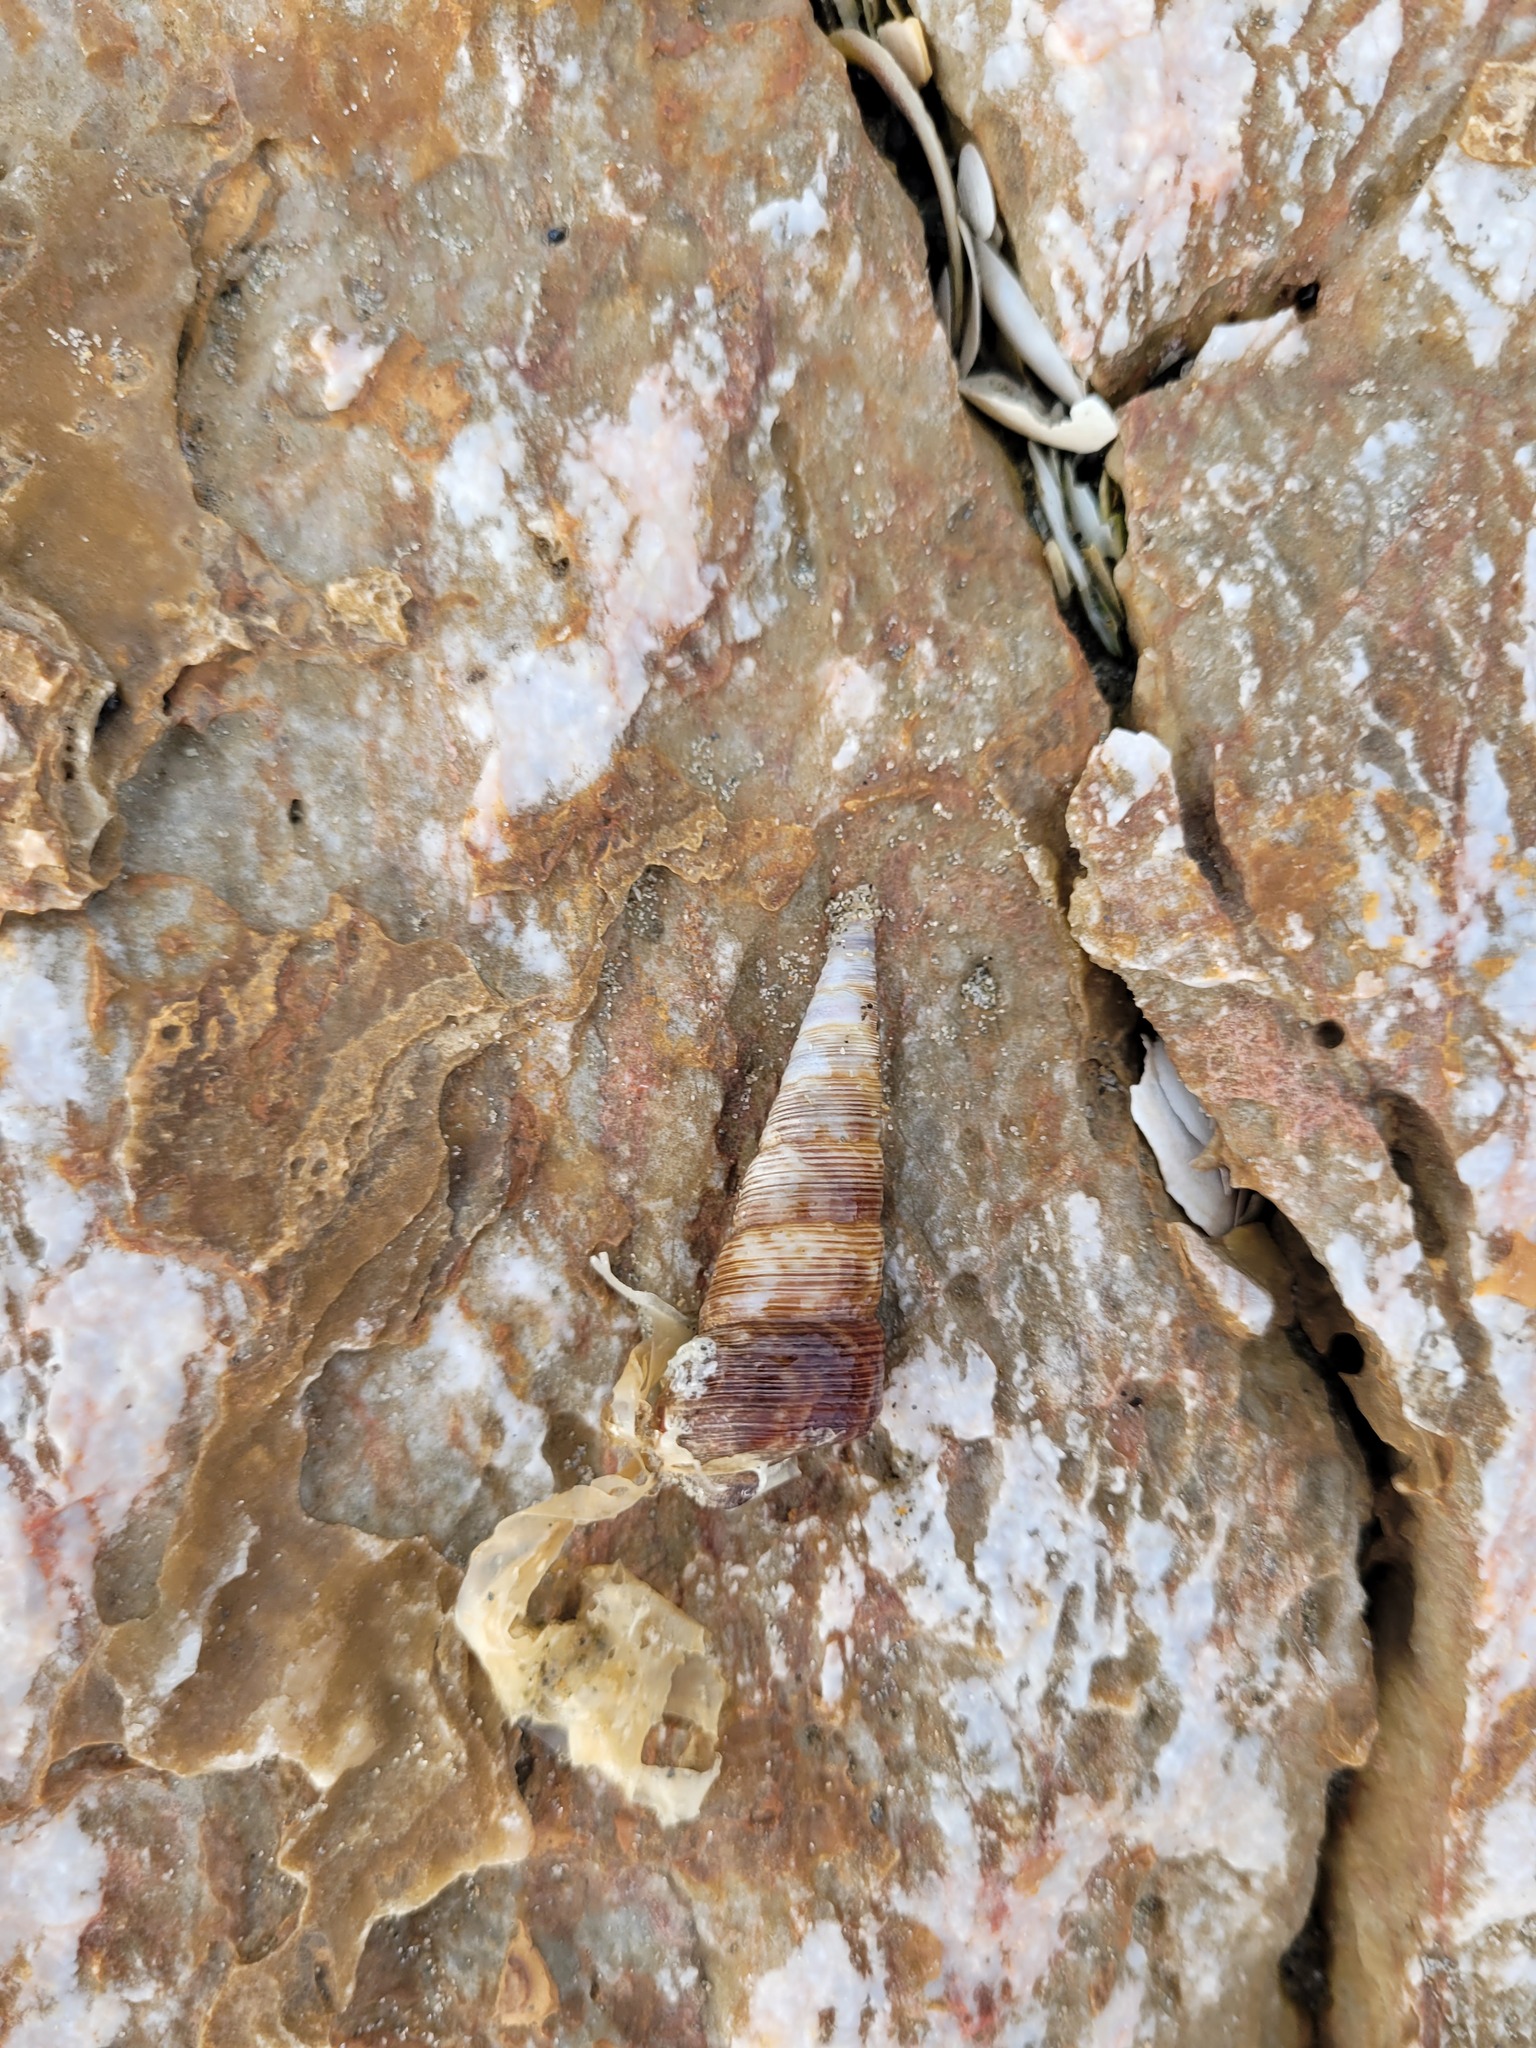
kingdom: Animalia
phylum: Mollusca
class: Gastropoda
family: Turritellidae
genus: Maoricolpus
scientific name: Maoricolpus roseus
